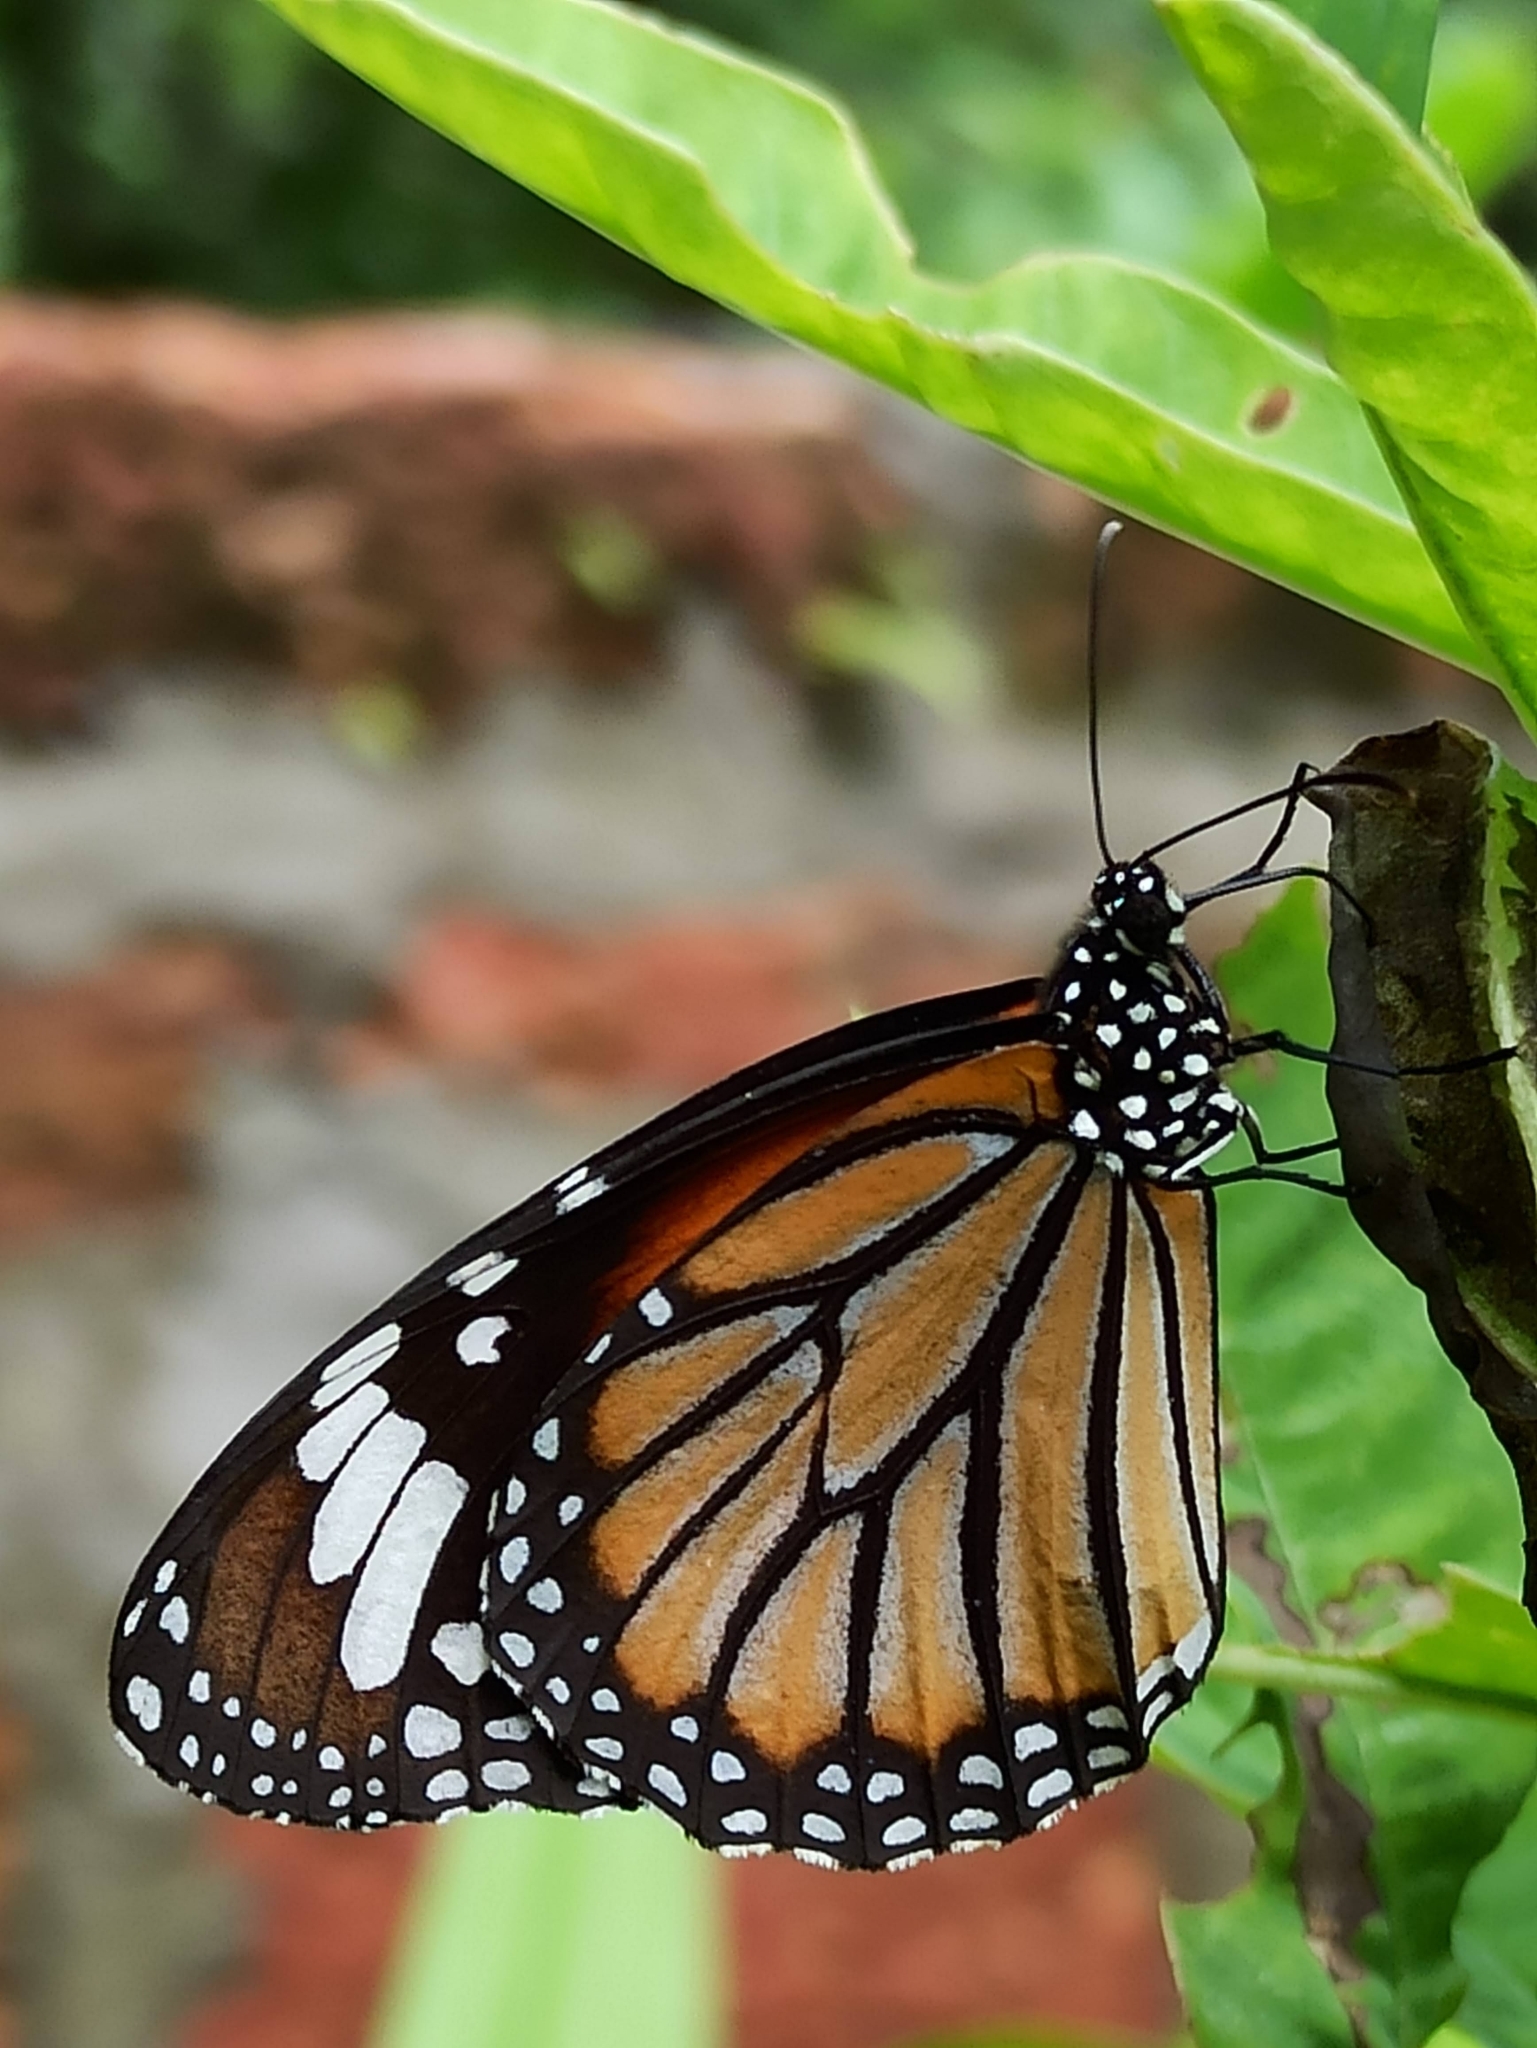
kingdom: Animalia
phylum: Arthropoda
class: Insecta
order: Lepidoptera
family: Nymphalidae
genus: Danaus
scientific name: Danaus genutia
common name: Common tiger butterfly
